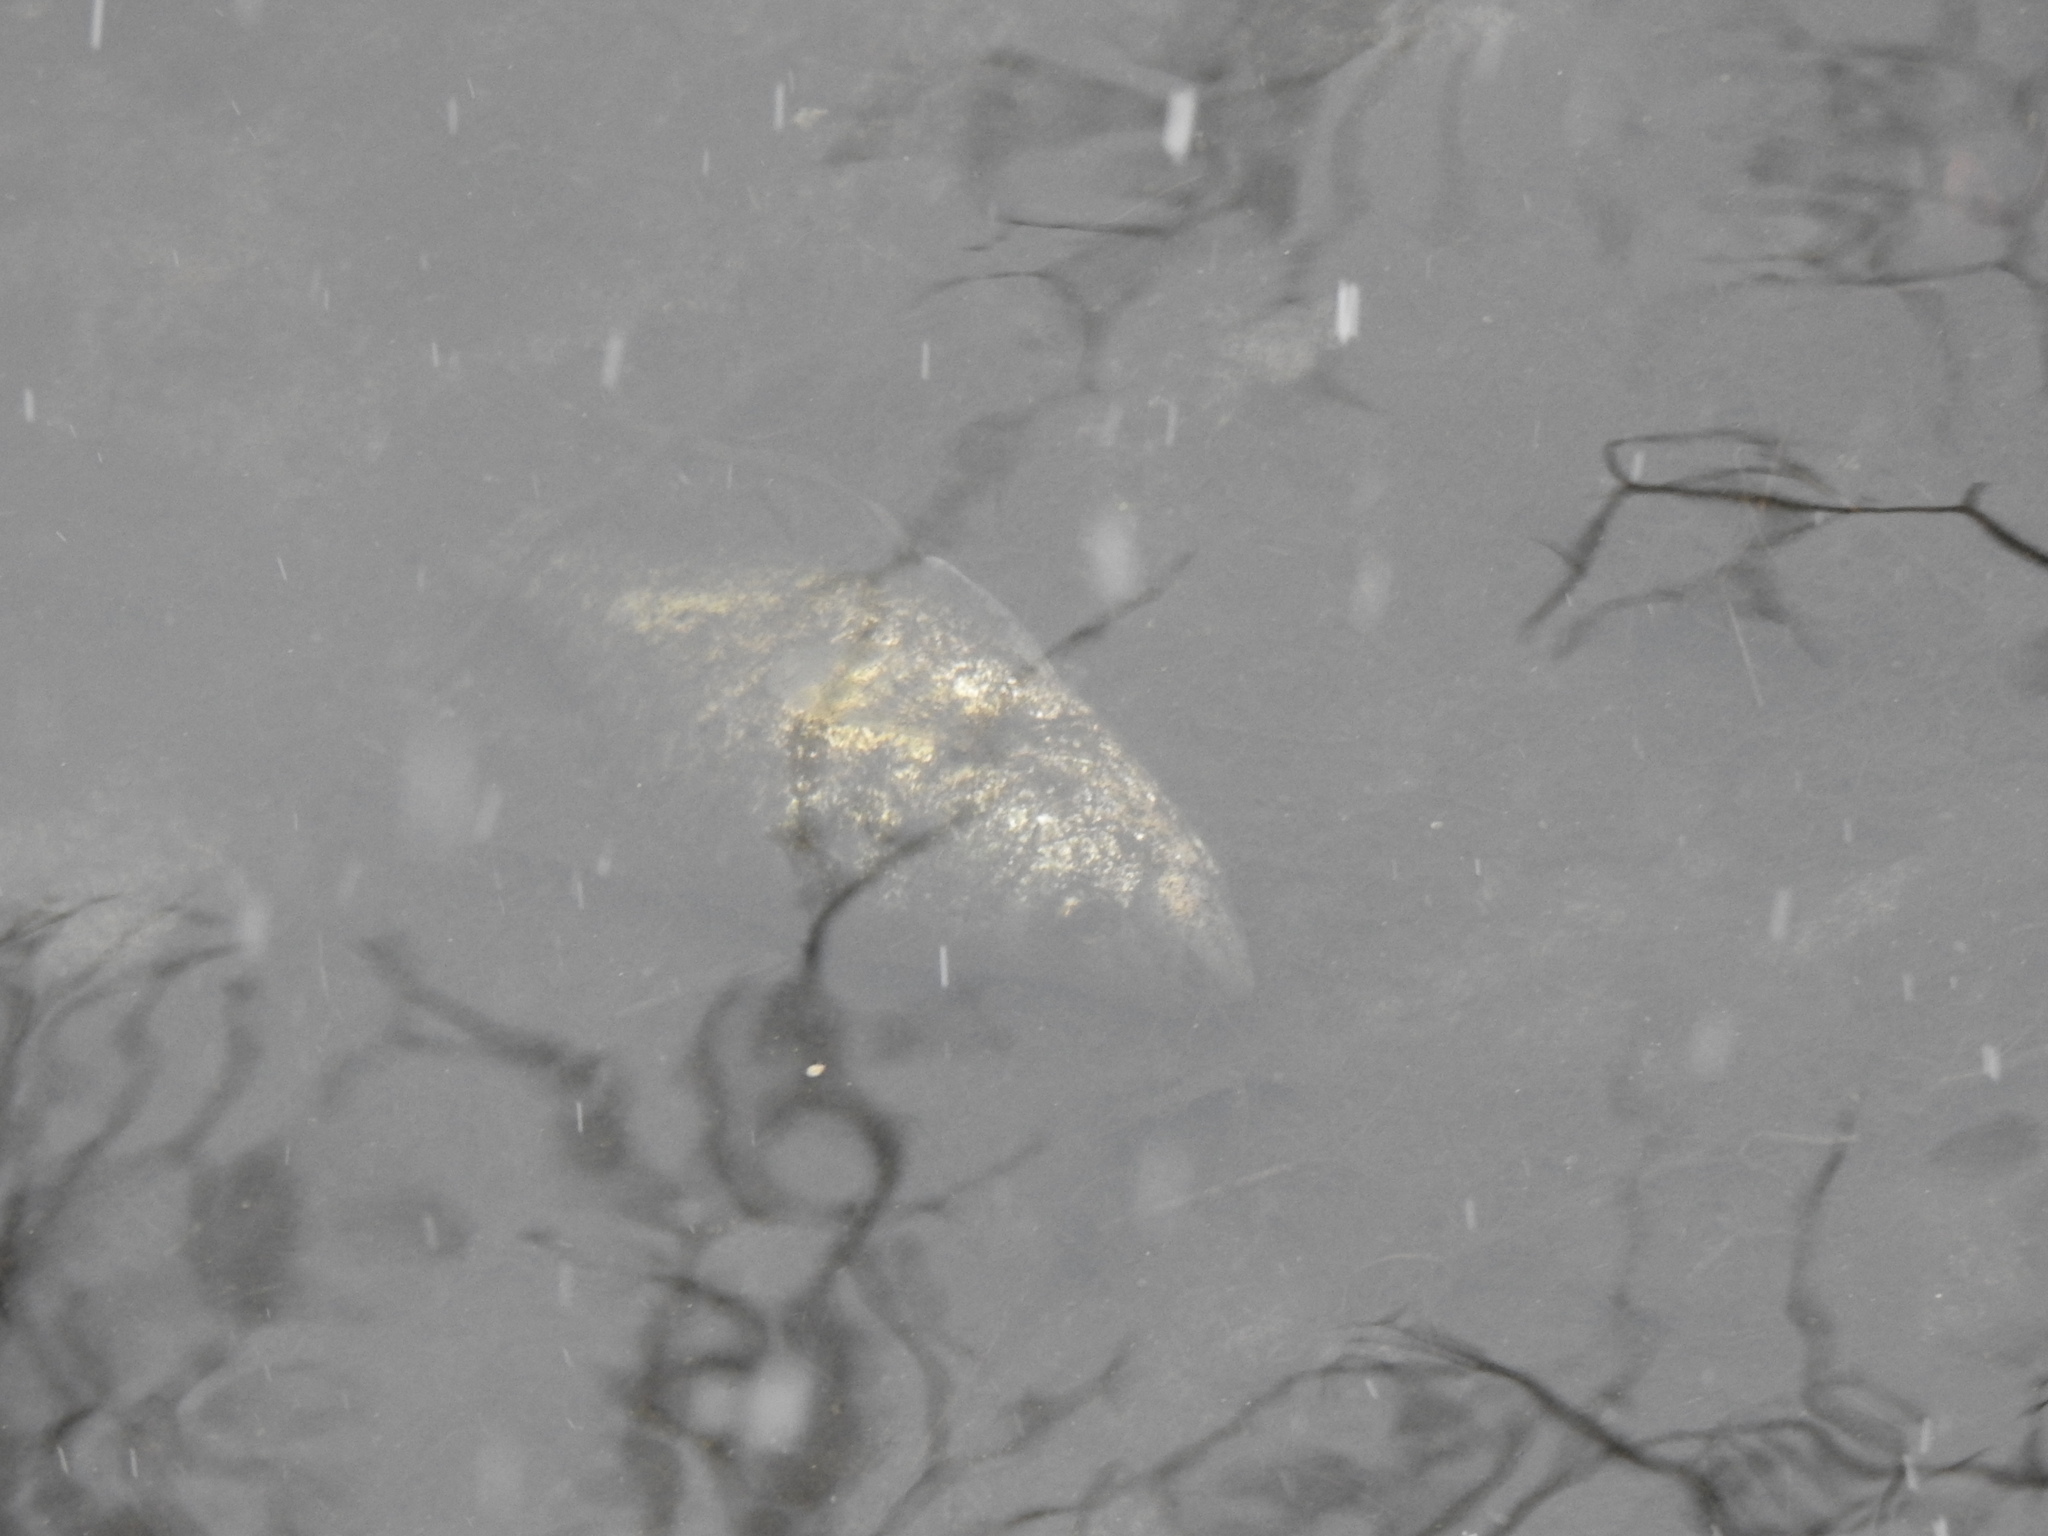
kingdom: Animalia
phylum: Chordata
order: Perciformes
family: Centrarchidae
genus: Pomoxis
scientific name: Pomoxis
